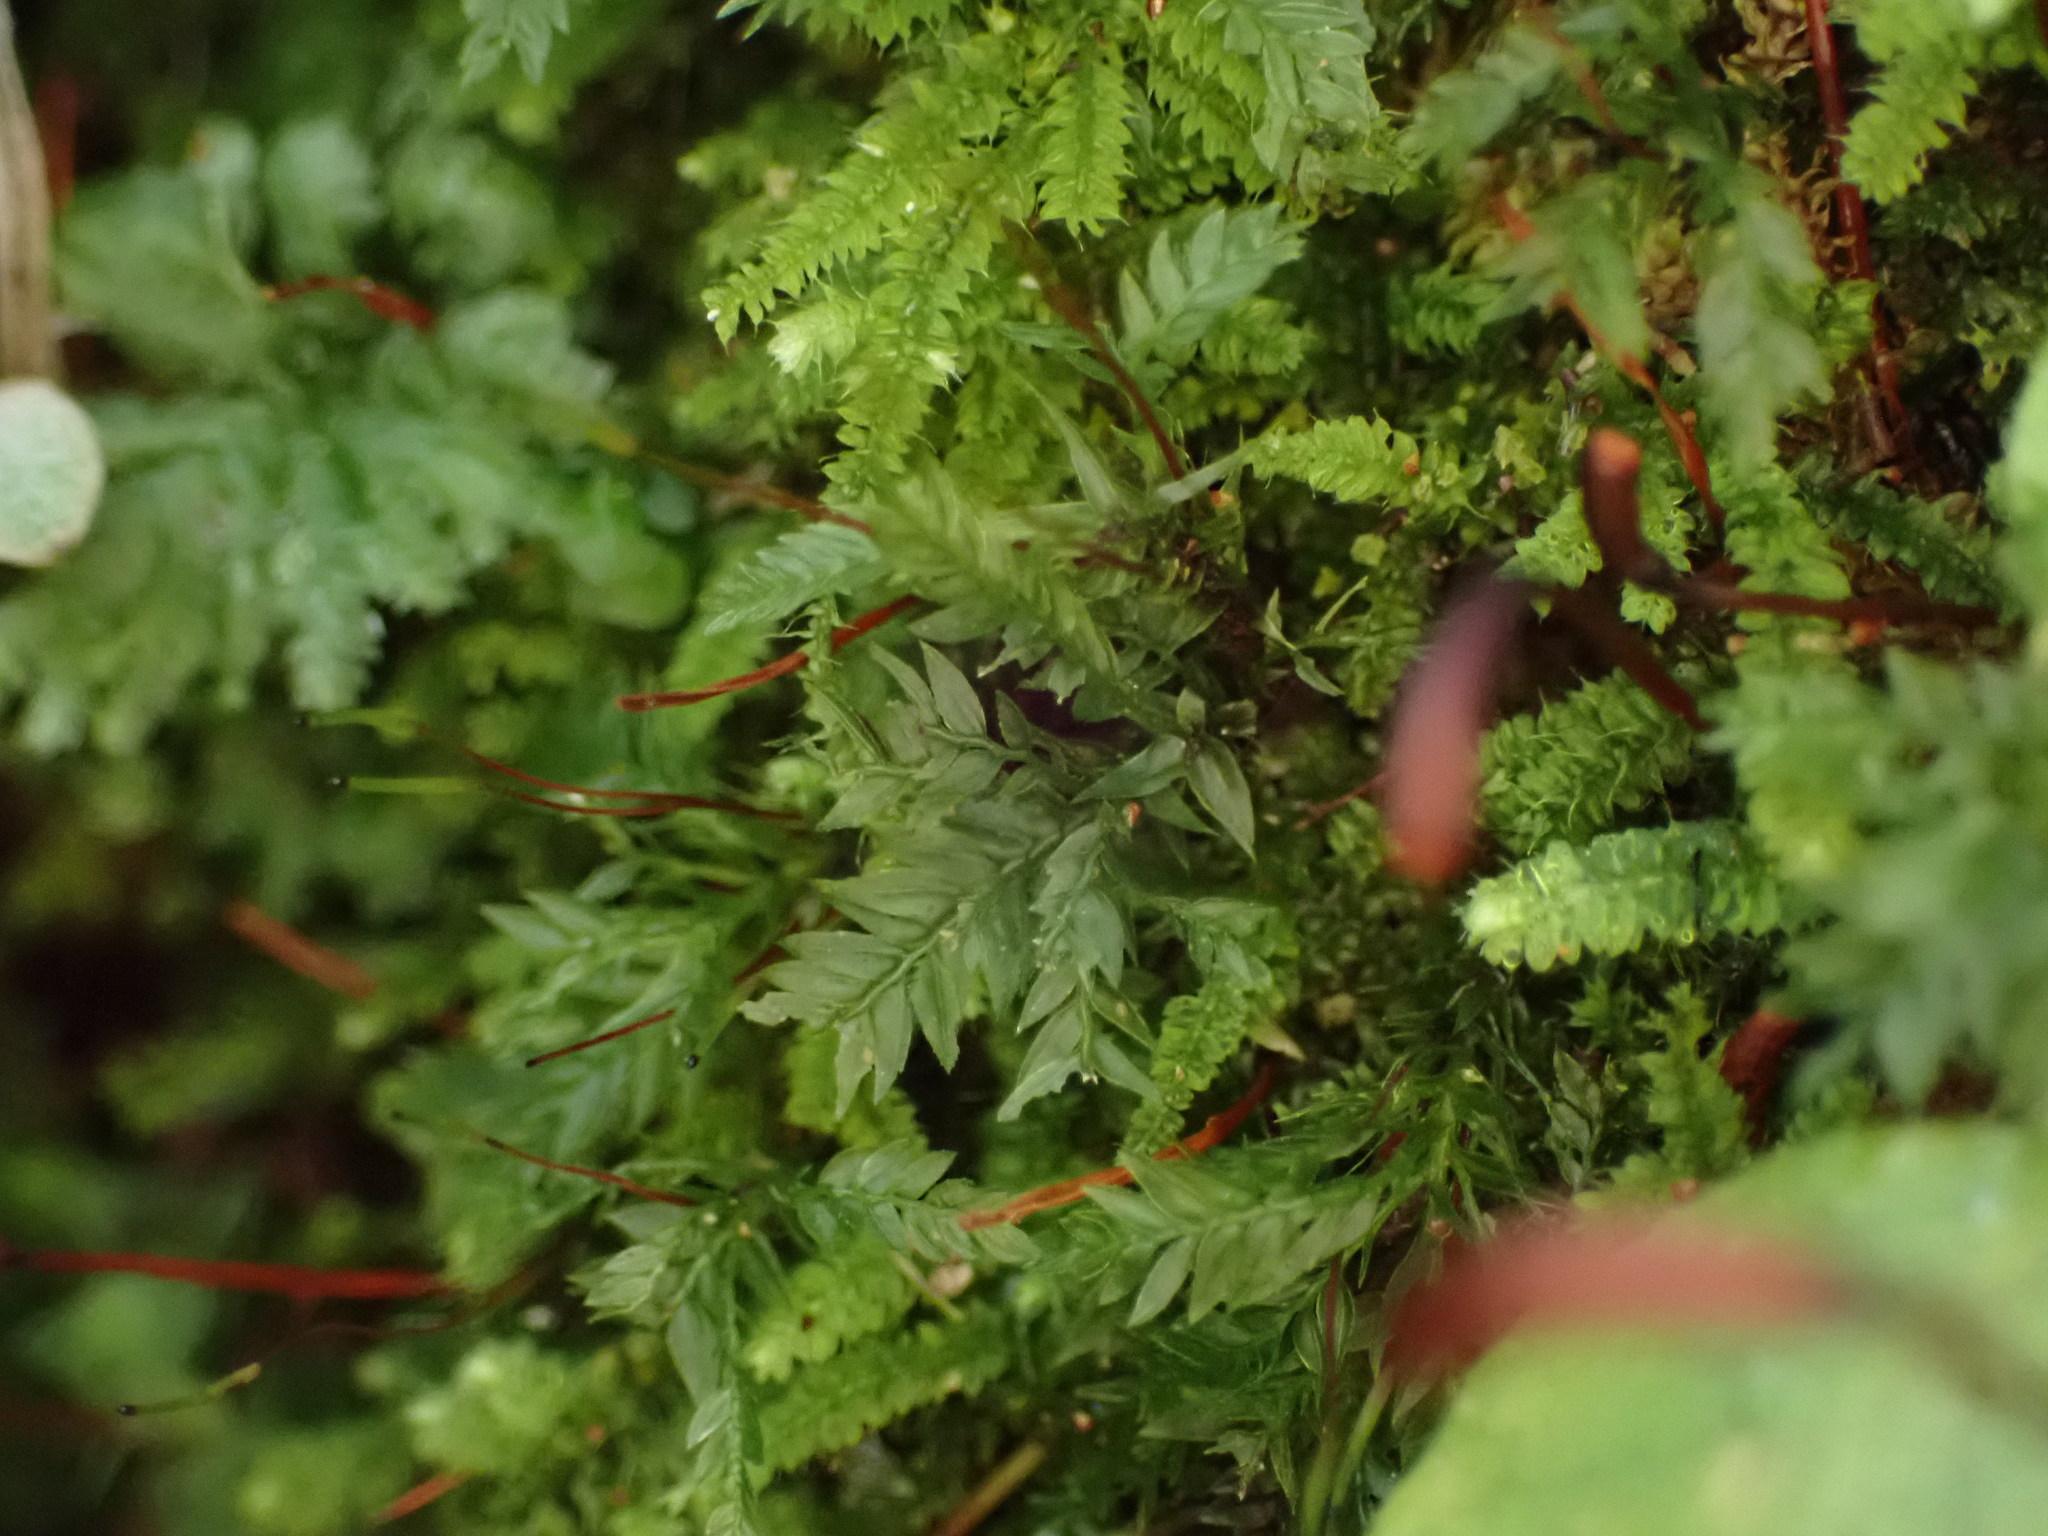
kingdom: Plantae
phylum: Bryophyta
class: Bryopsida
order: Aulacomniales
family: Aulacomniaceae
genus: Hymenodontopsis
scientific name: Hymenodontopsis bifaria
